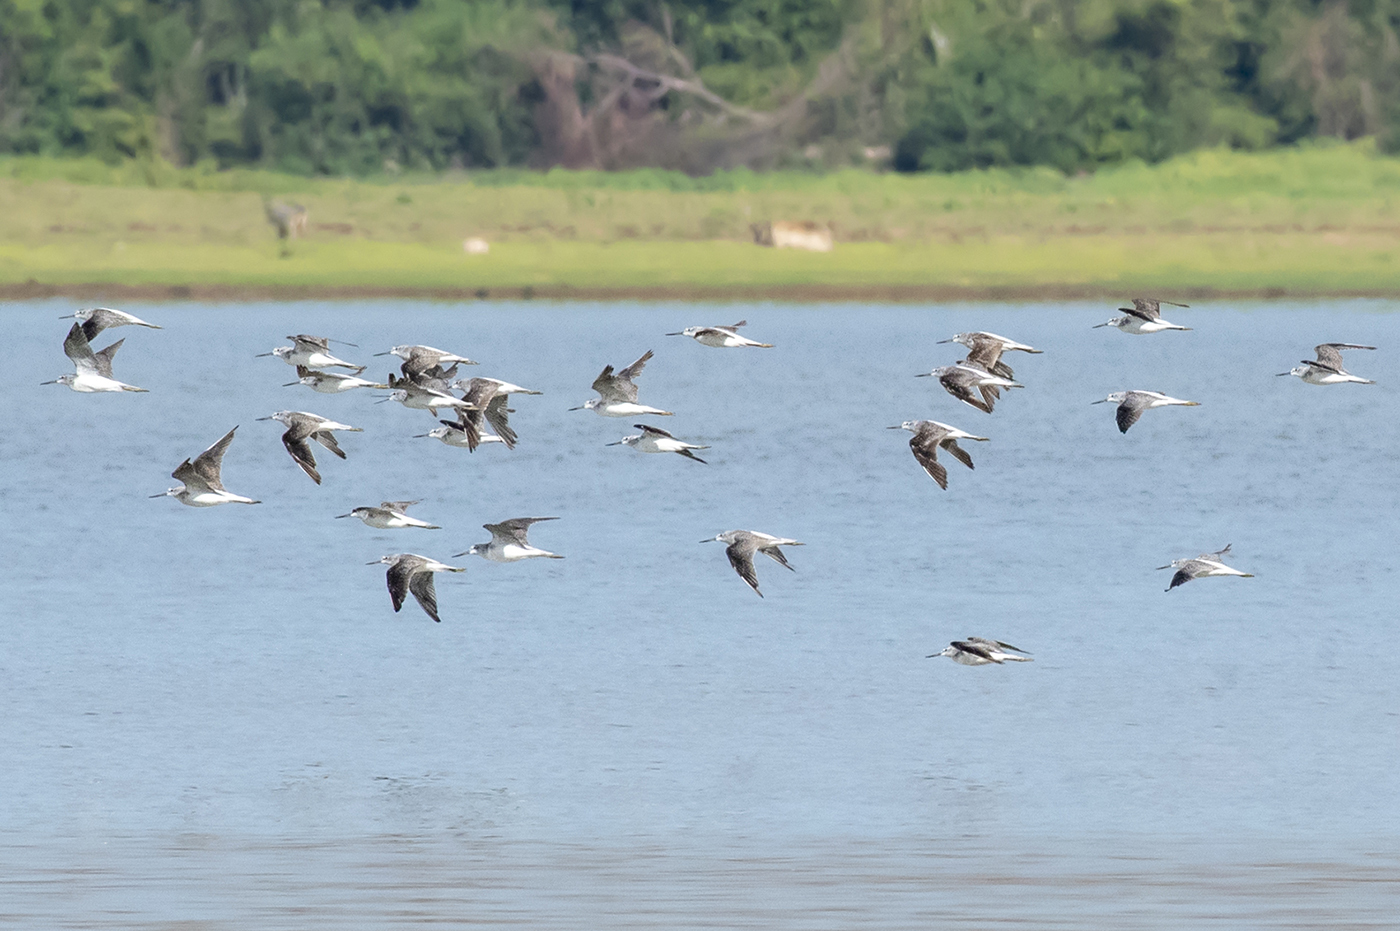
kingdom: Animalia
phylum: Chordata
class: Aves
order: Charadriiformes
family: Scolopacidae
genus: Tringa
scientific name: Tringa nebularia
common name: Common greenshank
